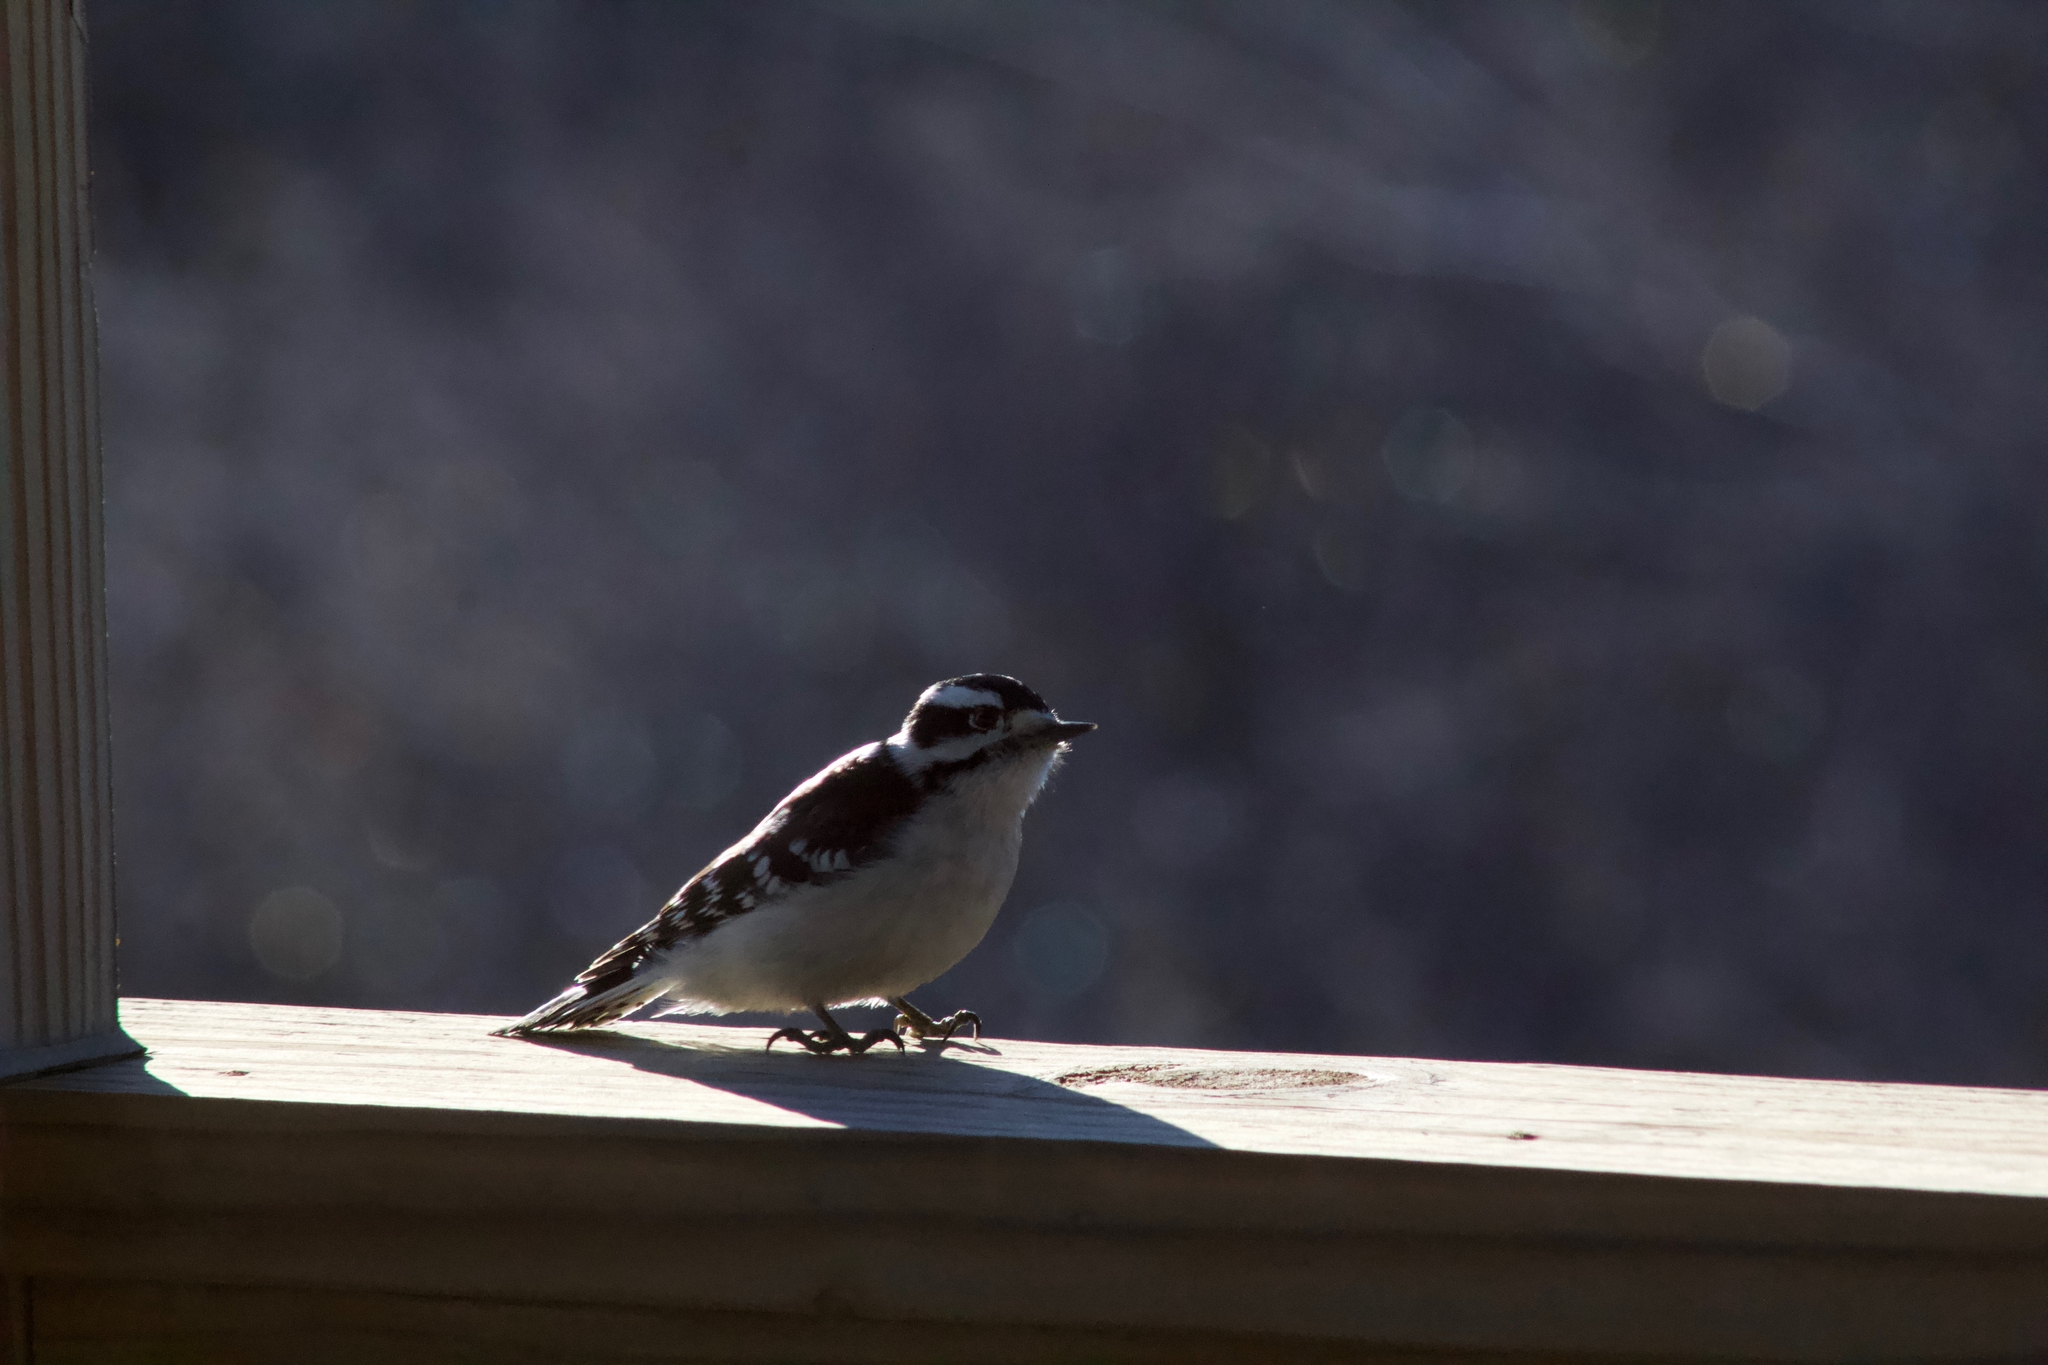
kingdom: Animalia
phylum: Chordata
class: Aves
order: Piciformes
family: Picidae
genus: Dryobates
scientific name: Dryobates pubescens
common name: Downy woodpecker
